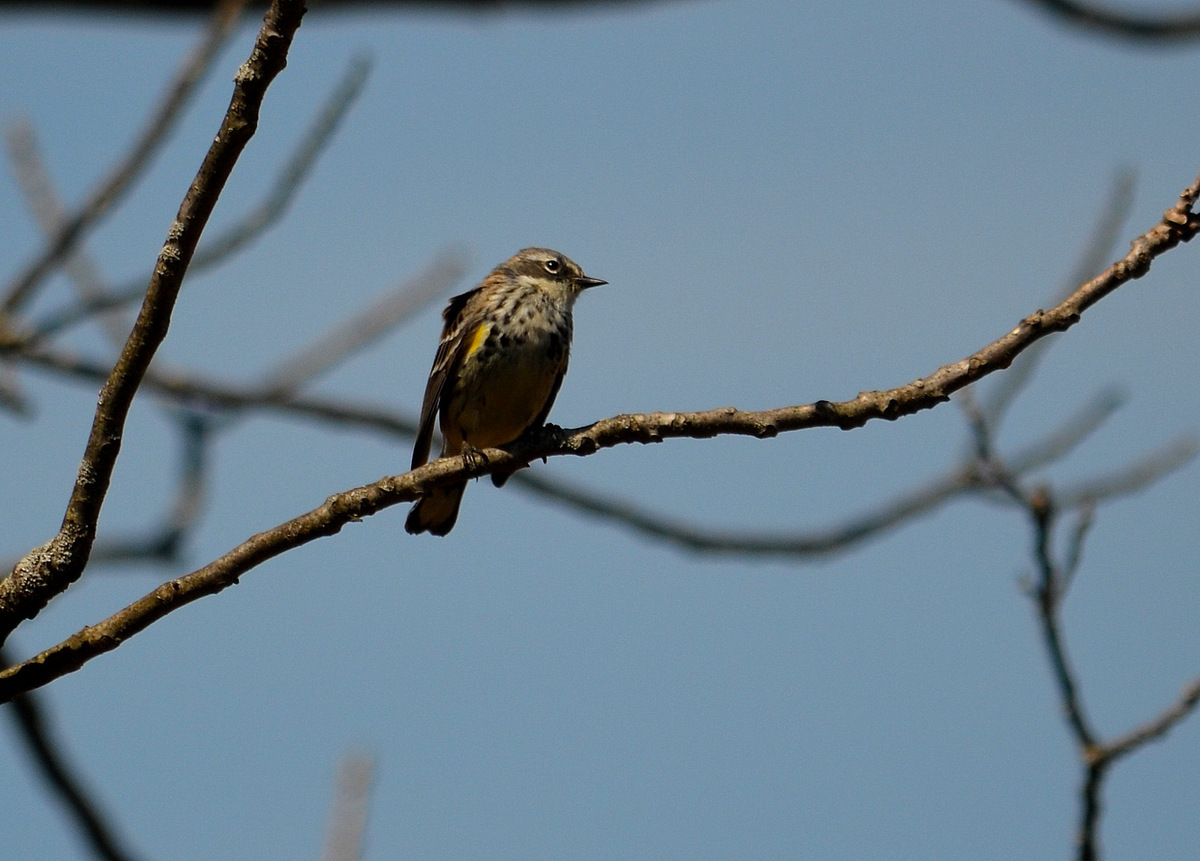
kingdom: Animalia
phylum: Chordata
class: Aves
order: Passeriformes
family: Parulidae
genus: Setophaga
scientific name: Setophaga coronata
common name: Myrtle warbler
